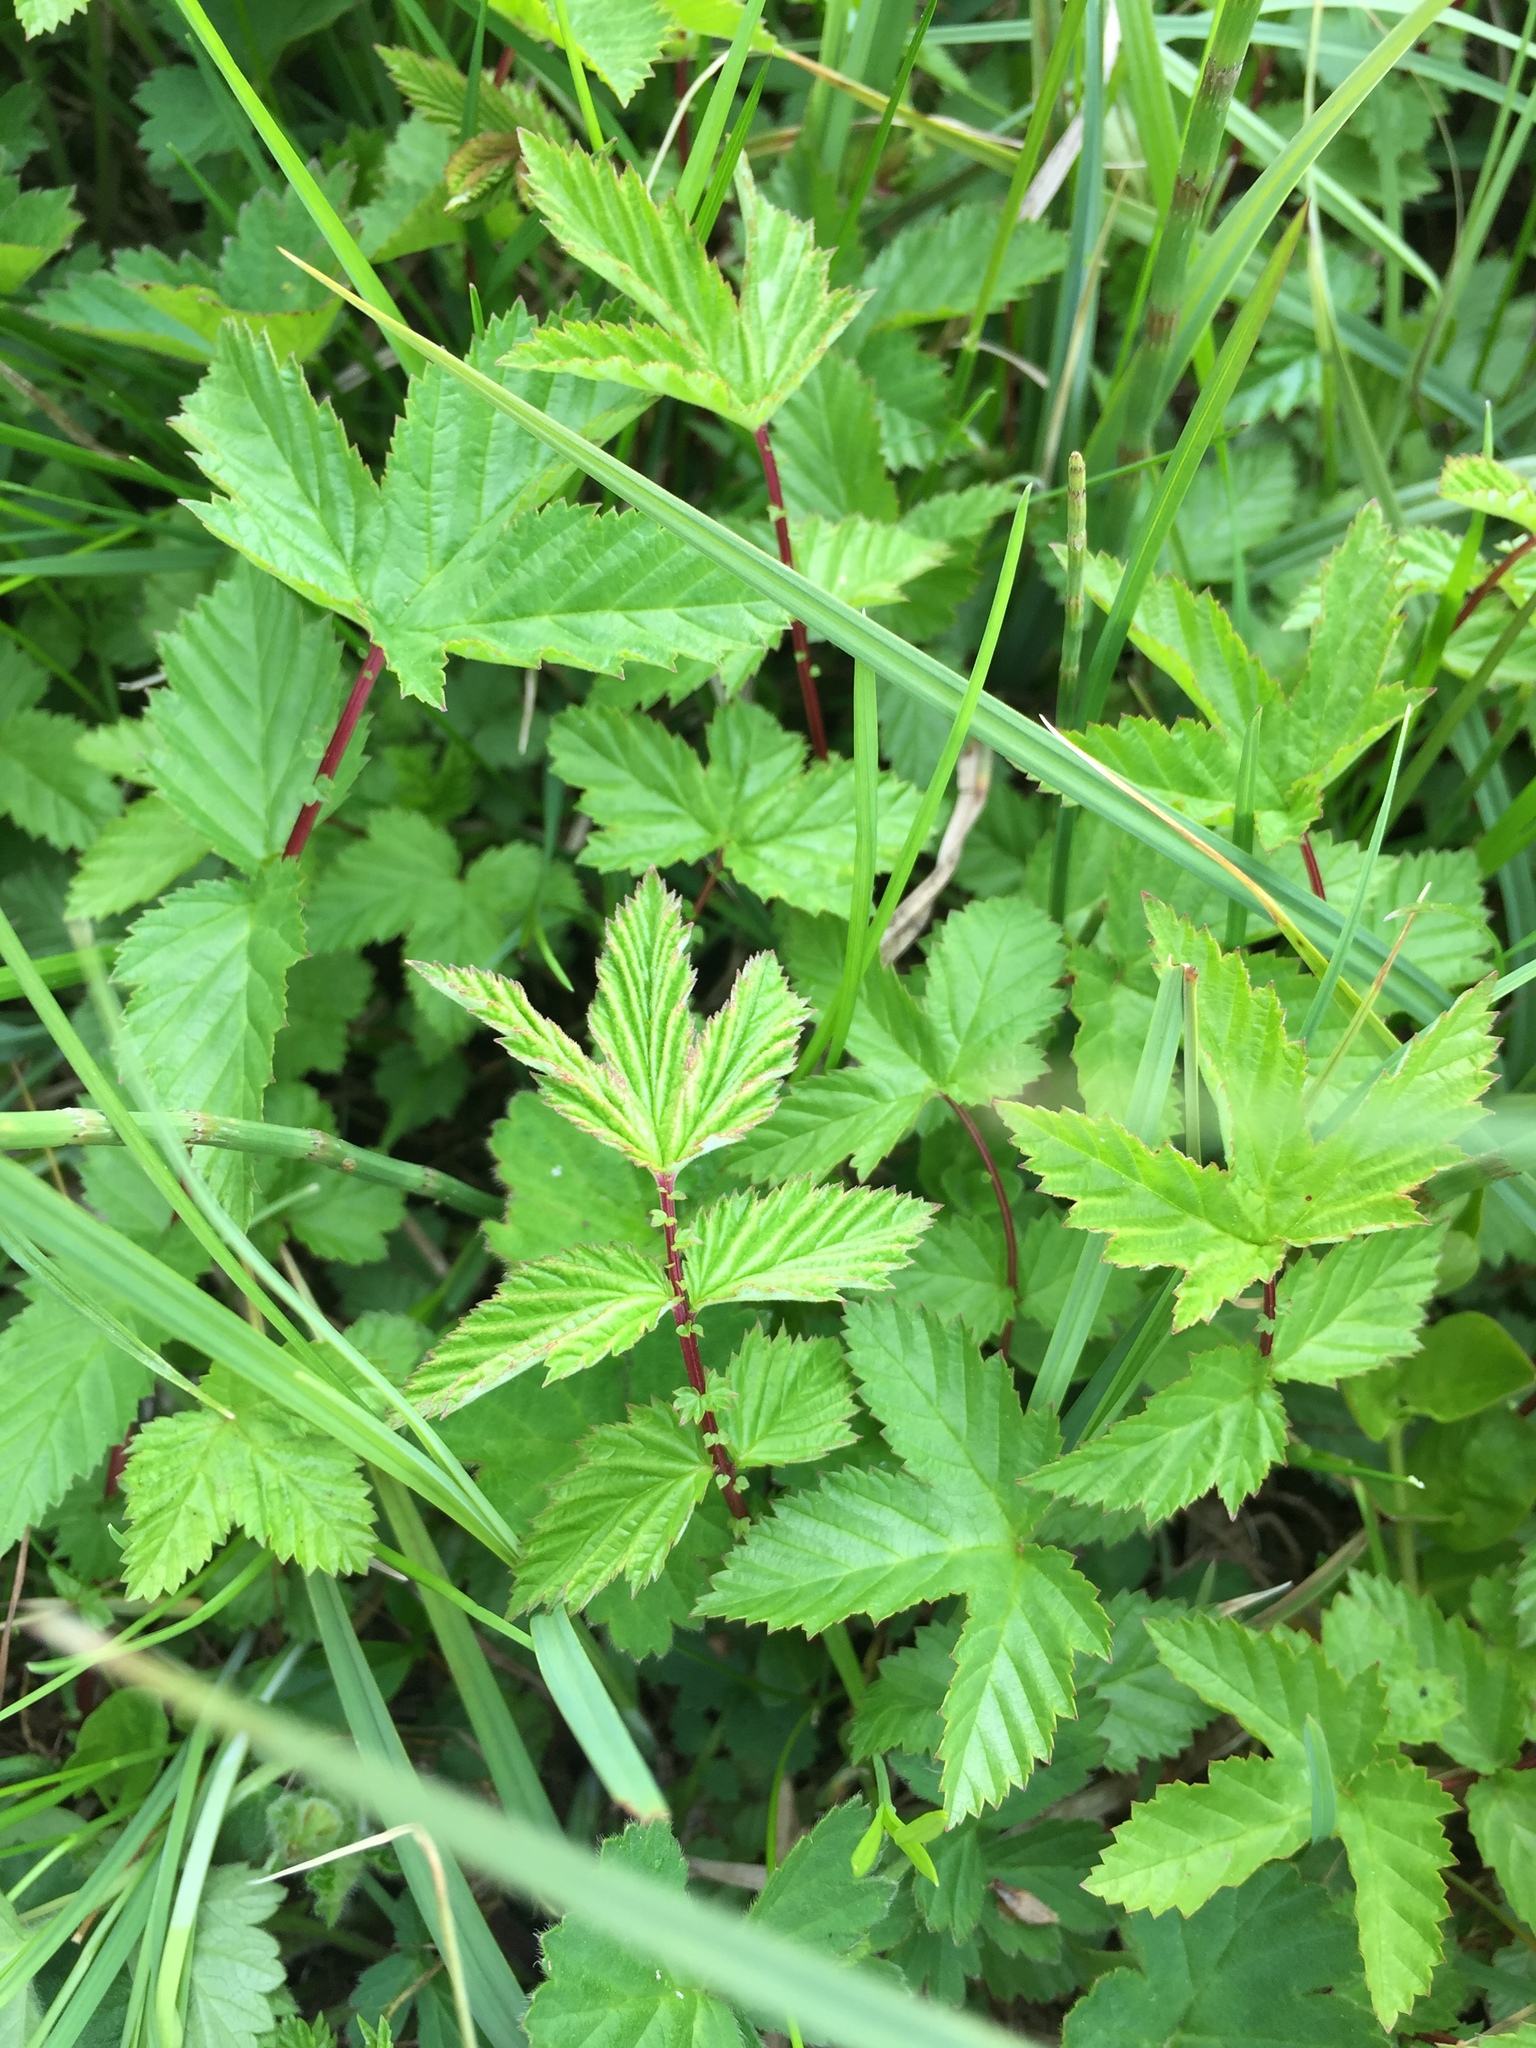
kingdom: Plantae
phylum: Tracheophyta
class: Magnoliopsida
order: Rosales
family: Rosaceae
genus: Filipendula
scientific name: Filipendula ulmaria
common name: Meadowsweet
